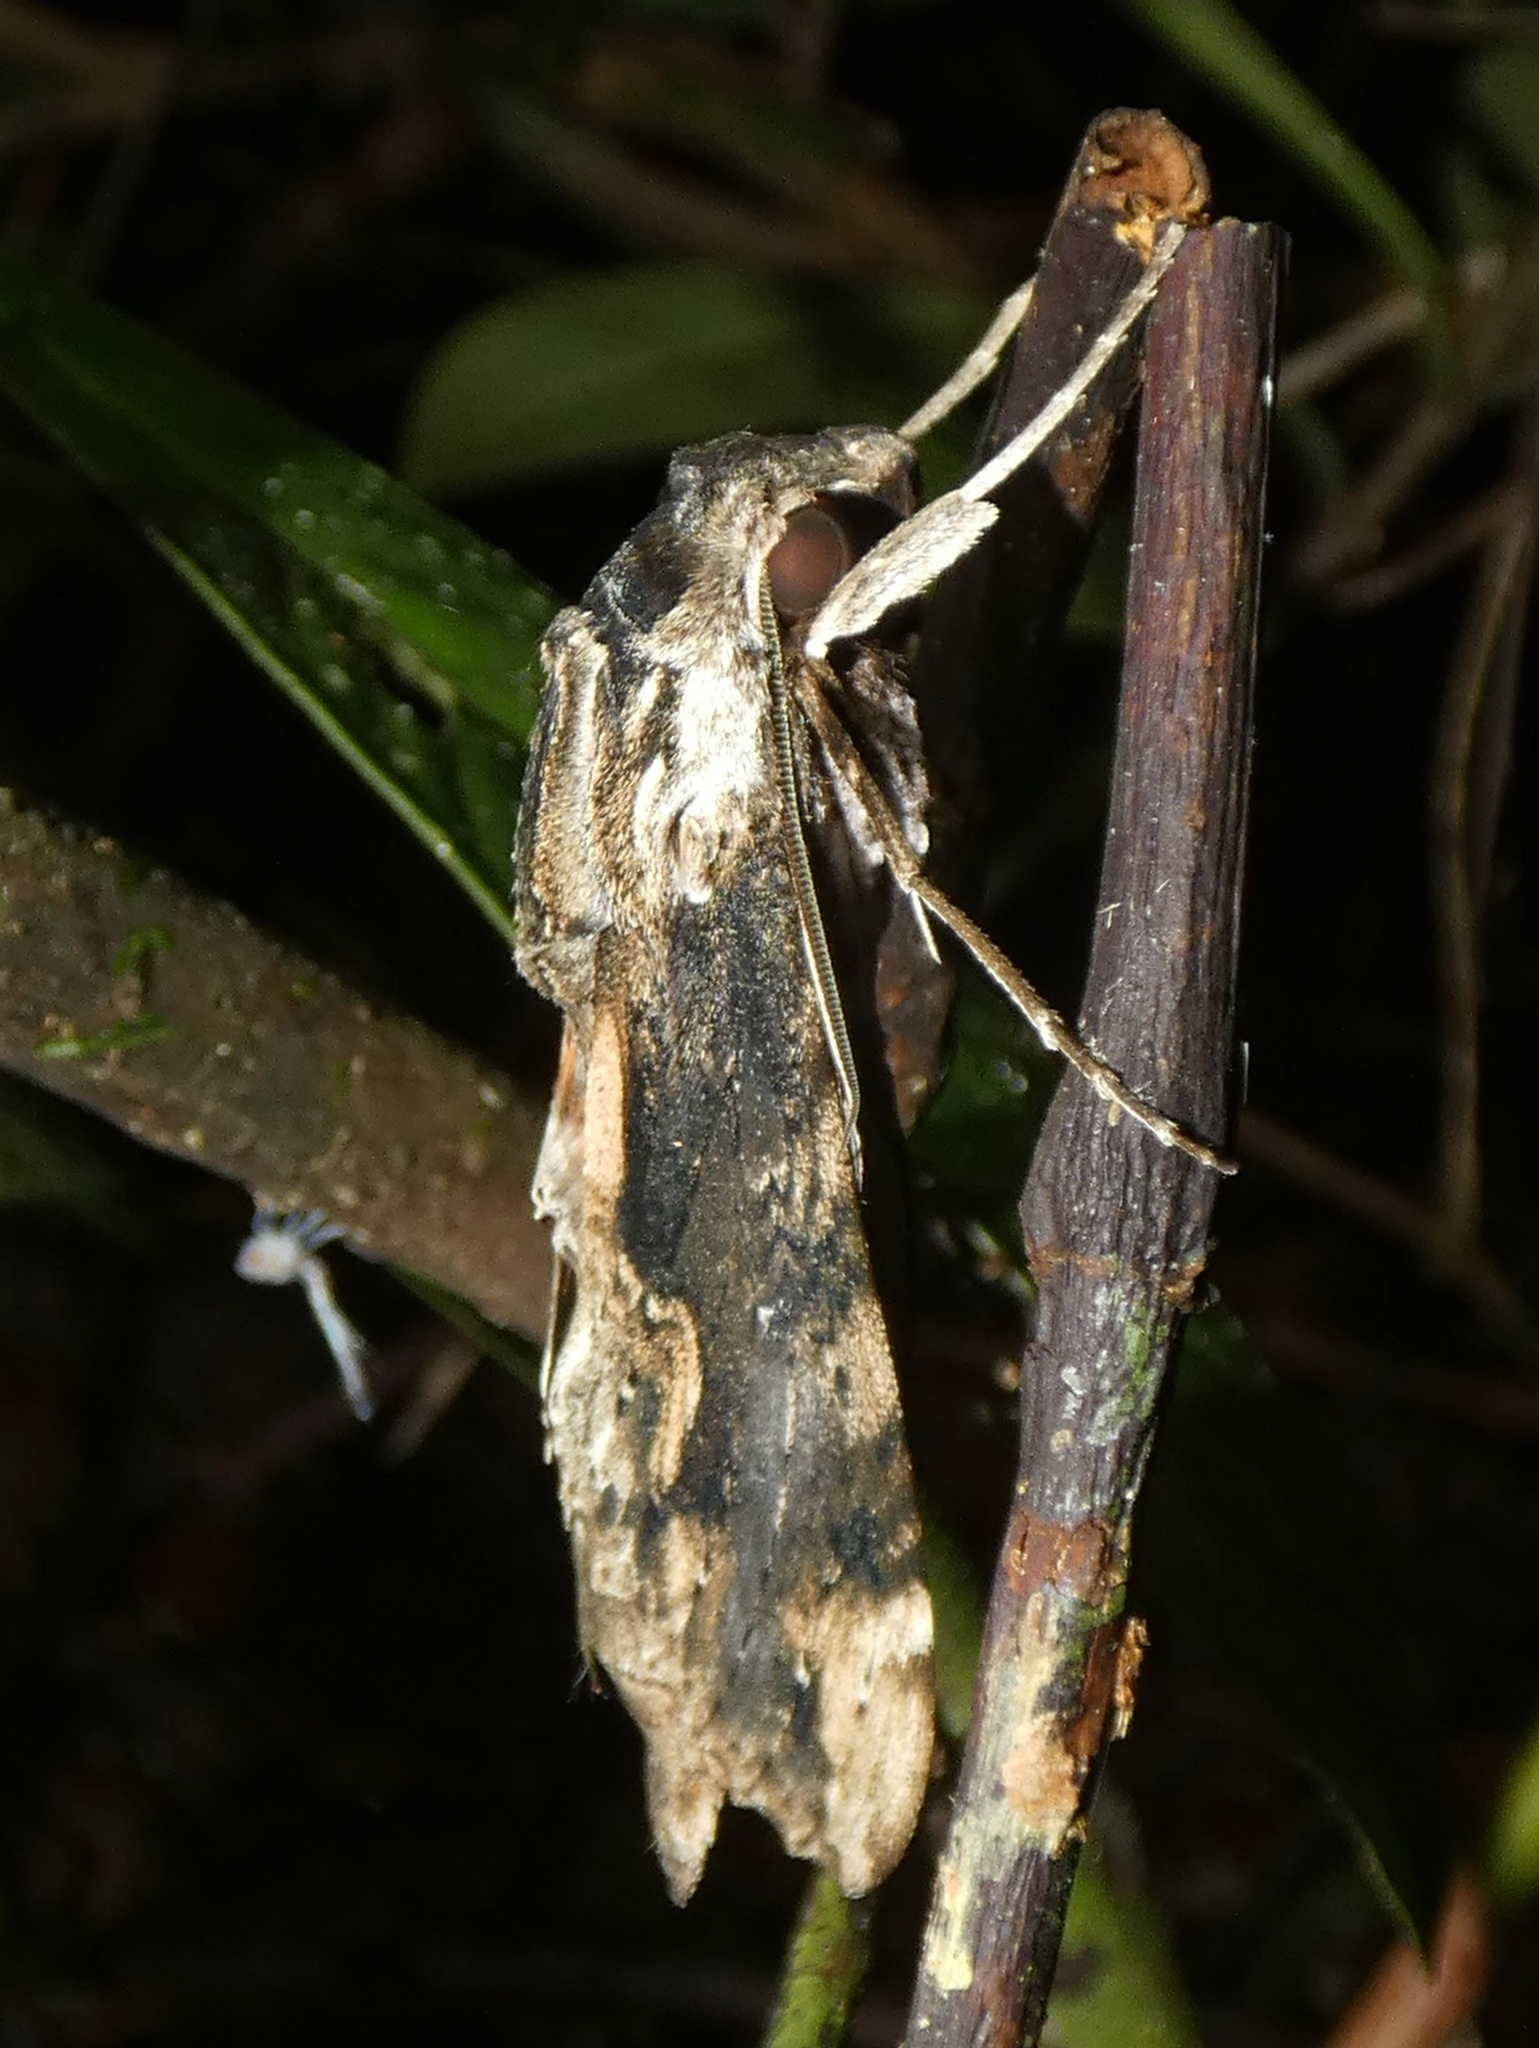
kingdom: Animalia
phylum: Arthropoda
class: Insecta
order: Lepidoptera
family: Sphingidae
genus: Erinnyis
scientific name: Erinnyis oenotrus
